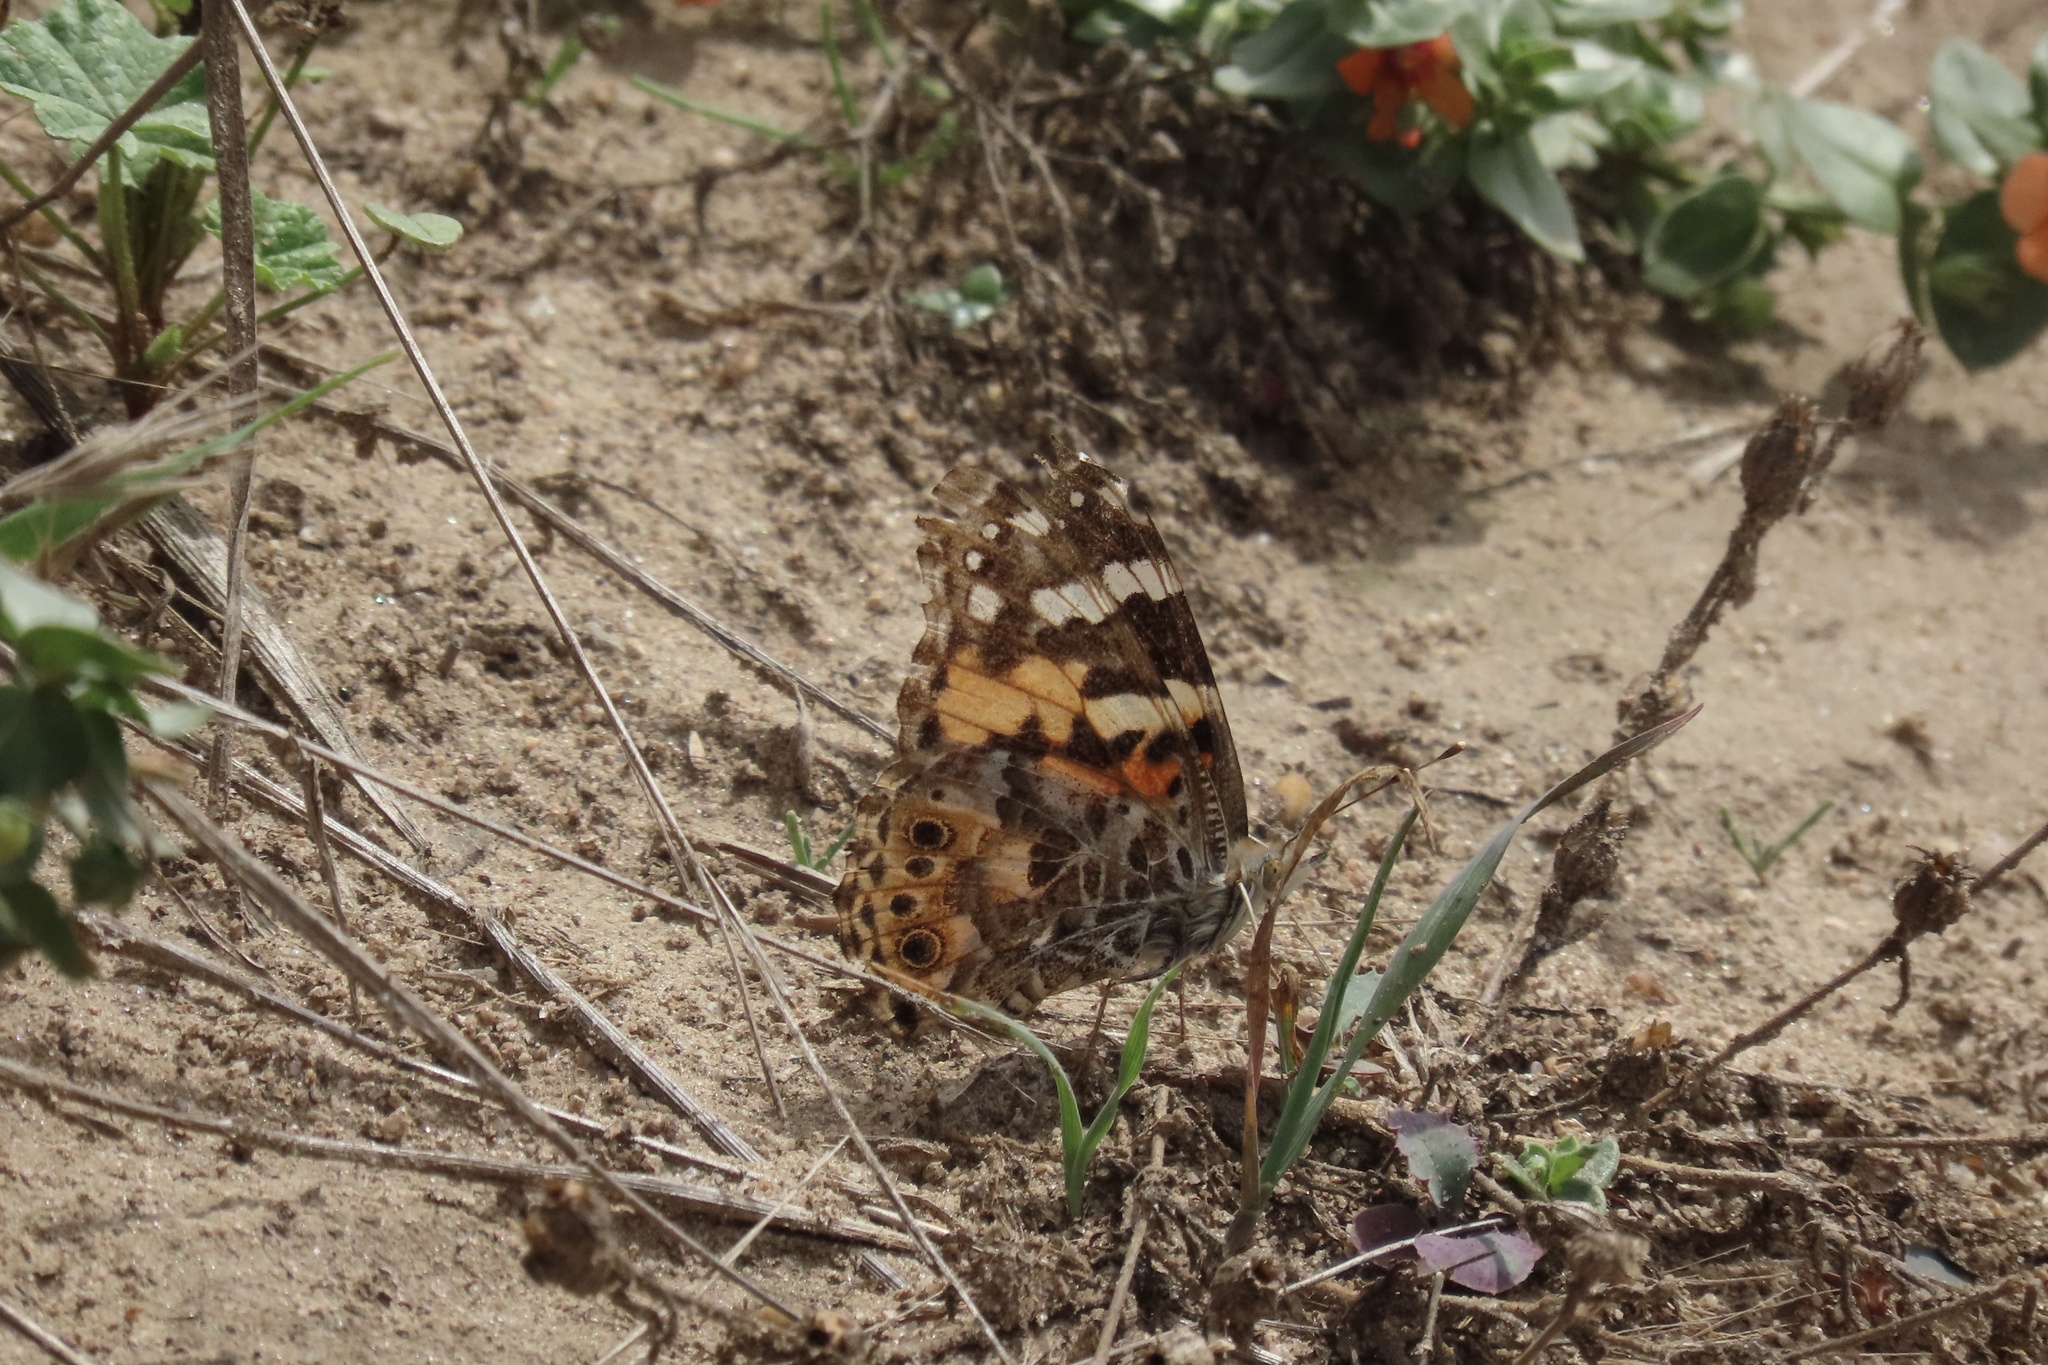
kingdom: Animalia
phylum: Arthropoda
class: Insecta
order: Lepidoptera
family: Nymphalidae
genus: Vanessa
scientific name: Vanessa cardui
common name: Painted lady
